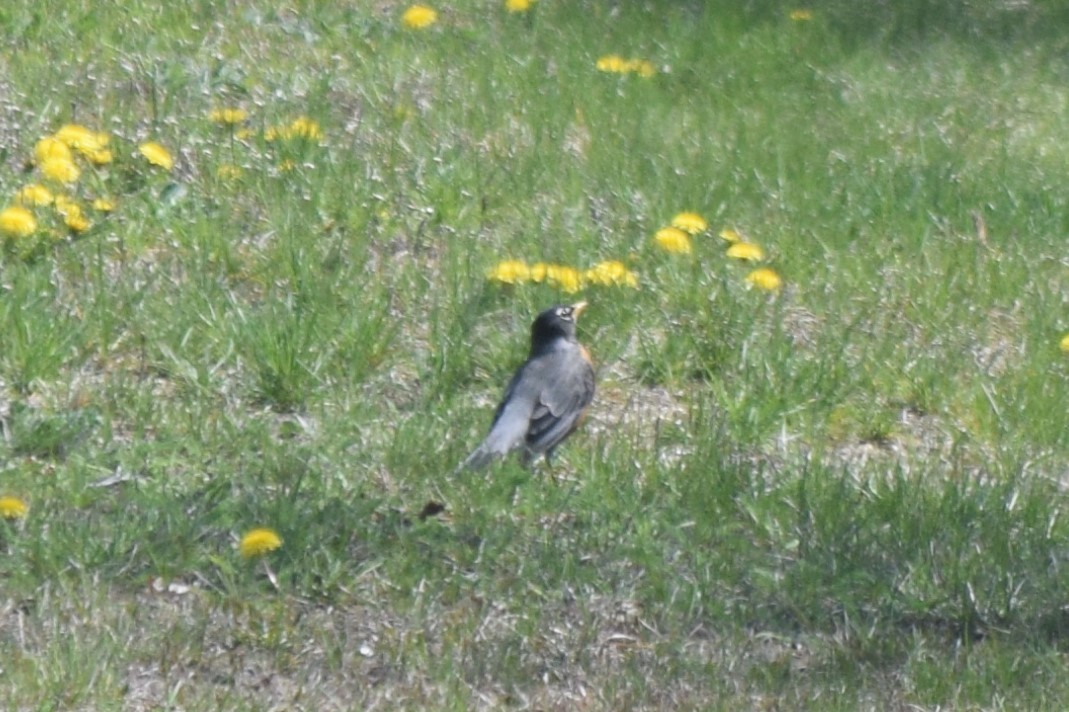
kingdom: Animalia
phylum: Chordata
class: Aves
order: Passeriformes
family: Turdidae
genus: Turdus
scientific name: Turdus migratorius
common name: American robin
